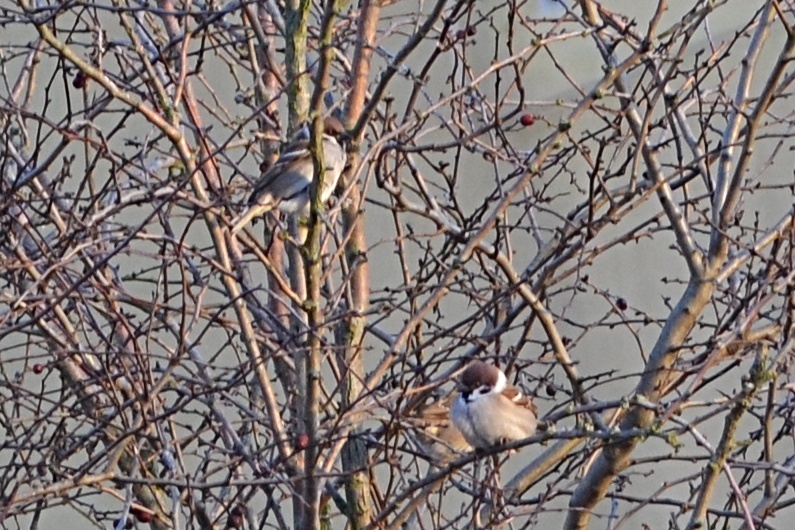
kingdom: Animalia
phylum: Chordata
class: Aves
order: Passeriformes
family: Passeridae
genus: Passer
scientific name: Passer montanus
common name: Eurasian tree sparrow
